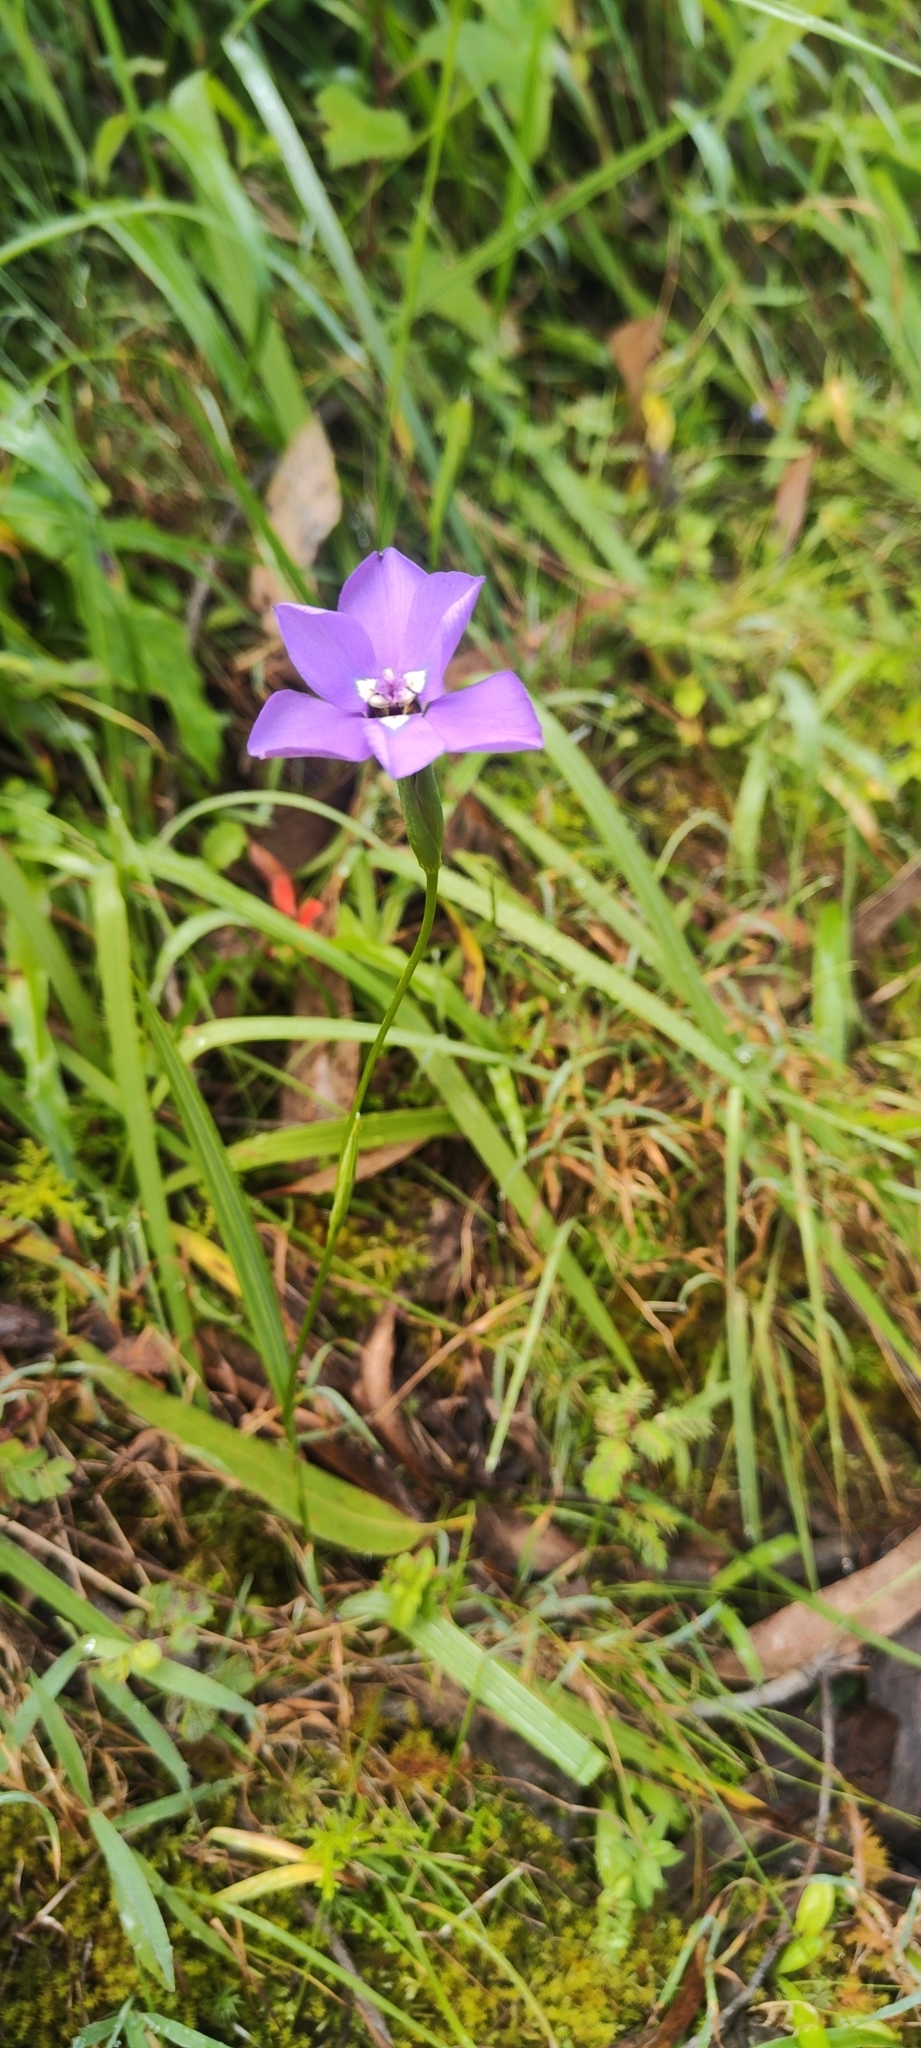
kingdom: Plantae
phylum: Tracheophyta
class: Liliopsida
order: Asparagales
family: Iridaceae
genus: Ennealophus
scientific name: Ennealophus foliosus
